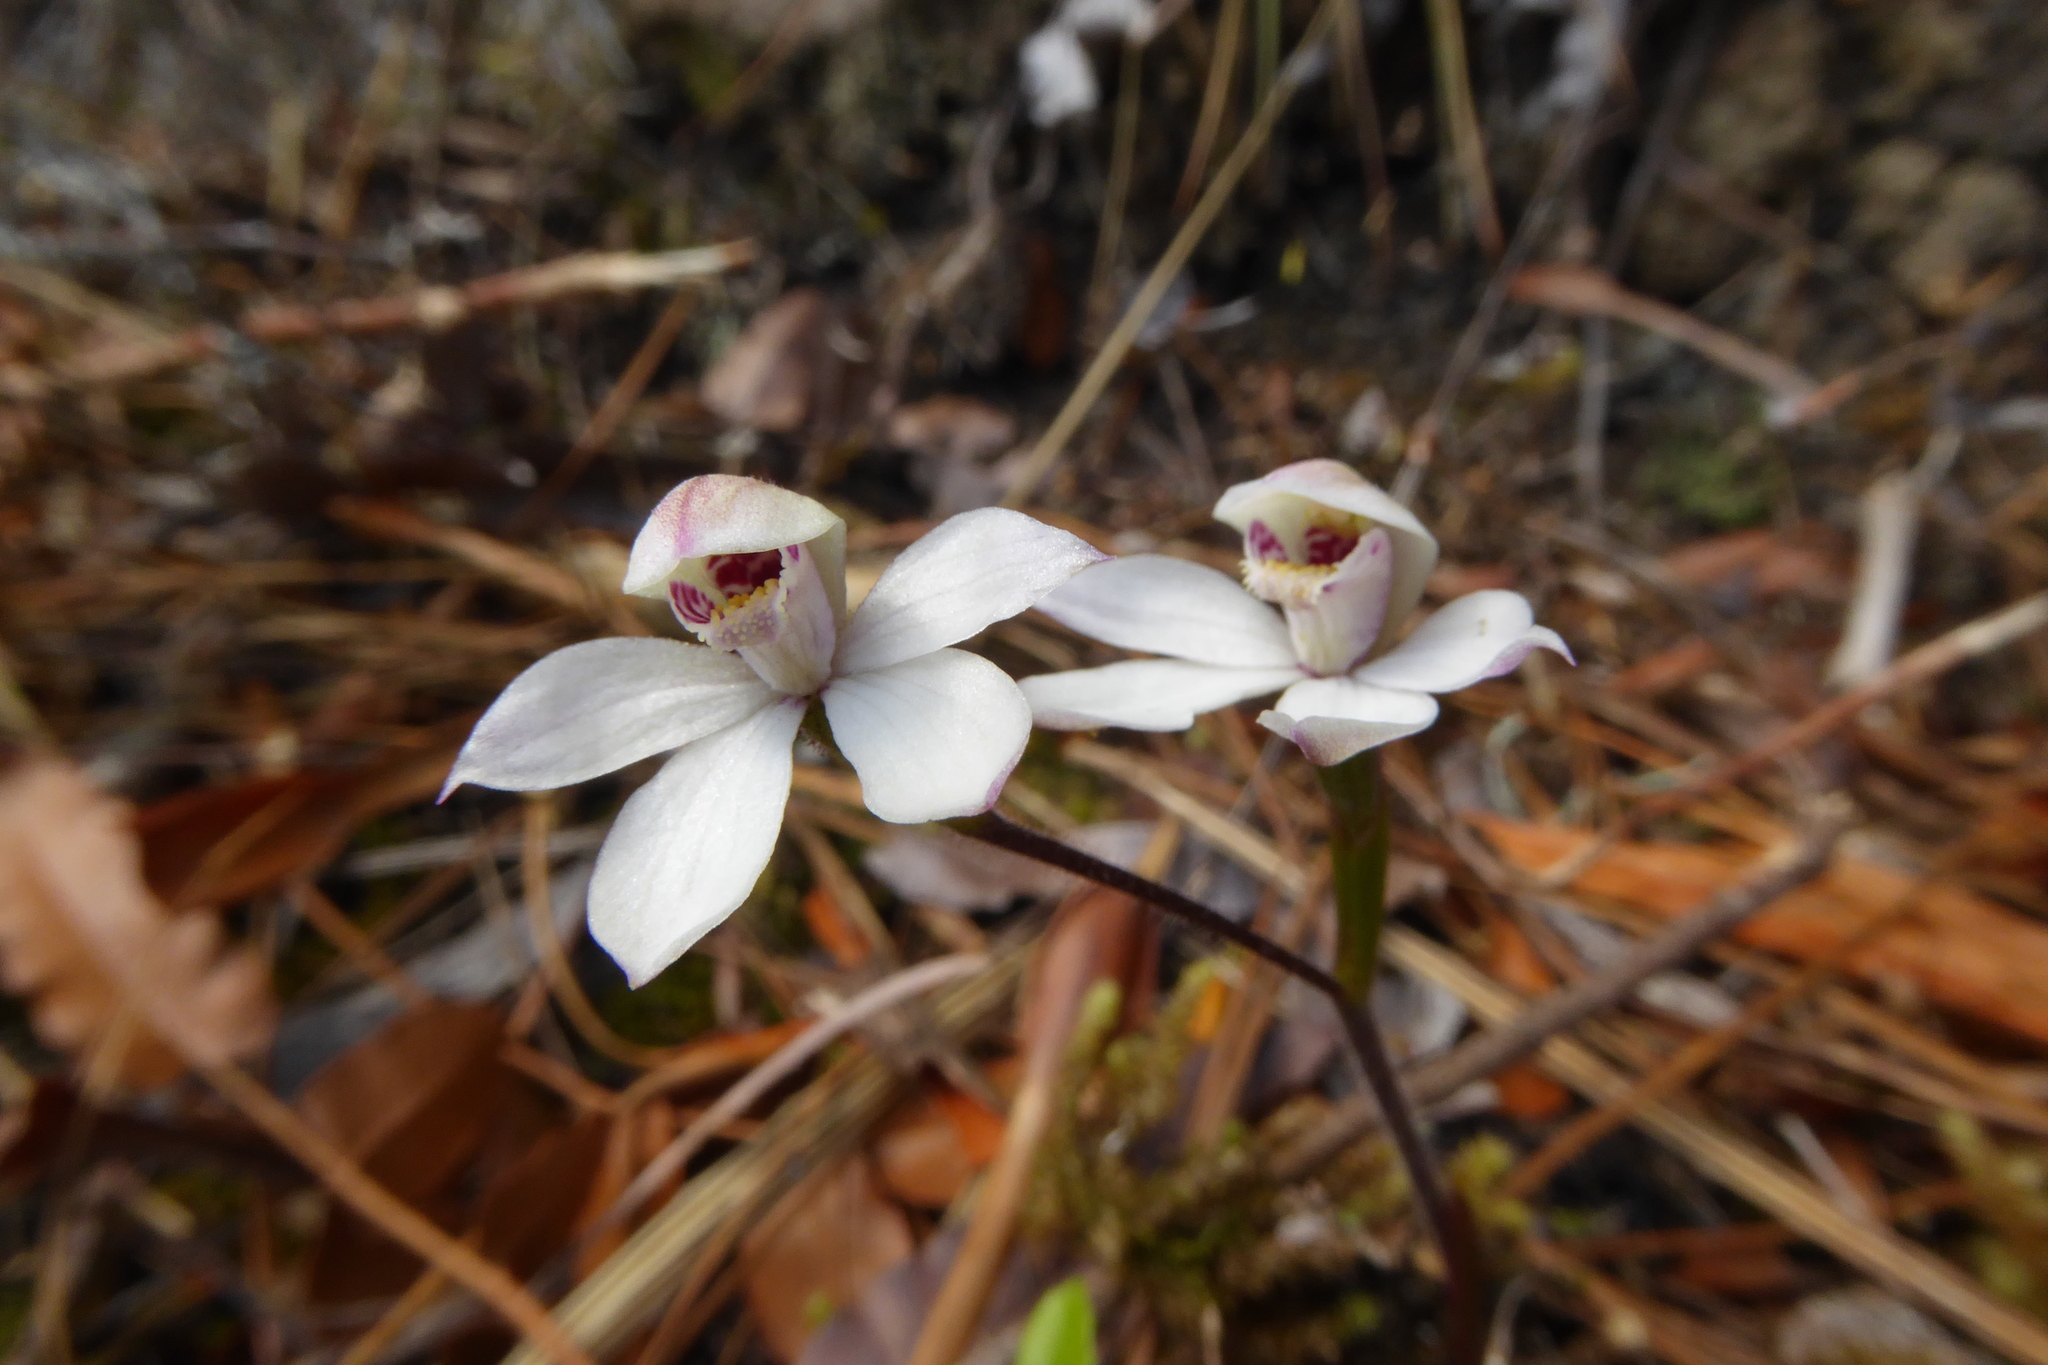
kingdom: Plantae
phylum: Tracheophyta
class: Liliopsida
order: Asparagales
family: Orchidaceae
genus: Caladenia
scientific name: Caladenia lyallii
